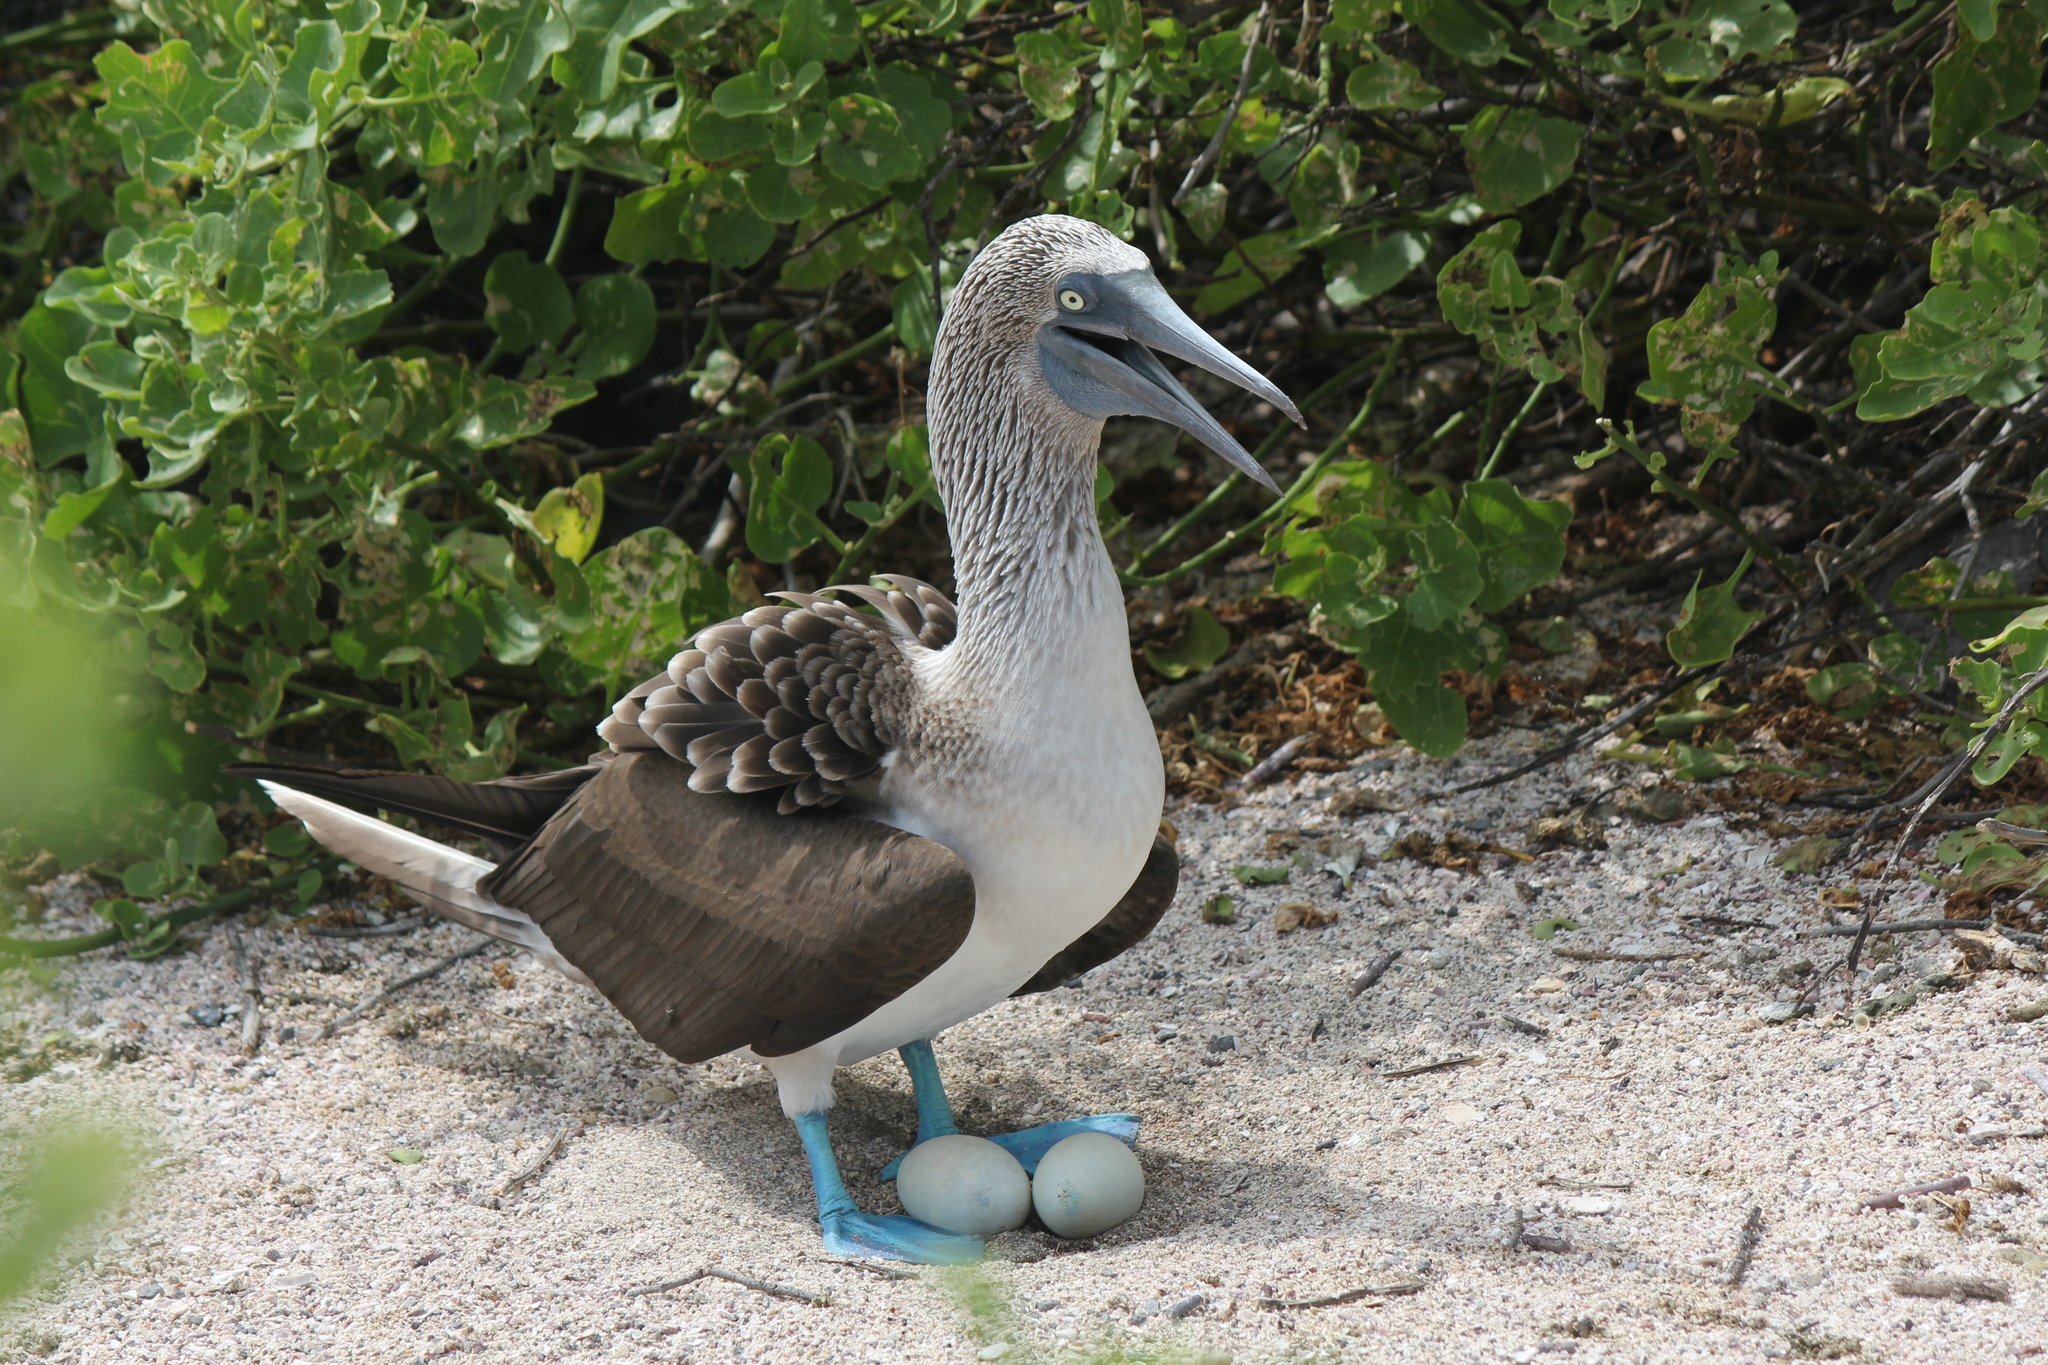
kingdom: Animalia
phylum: Chordata
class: Aves
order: Suliformes
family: Sulidae
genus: Sula
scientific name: Sula nebouxii
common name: Blue-footed booby
